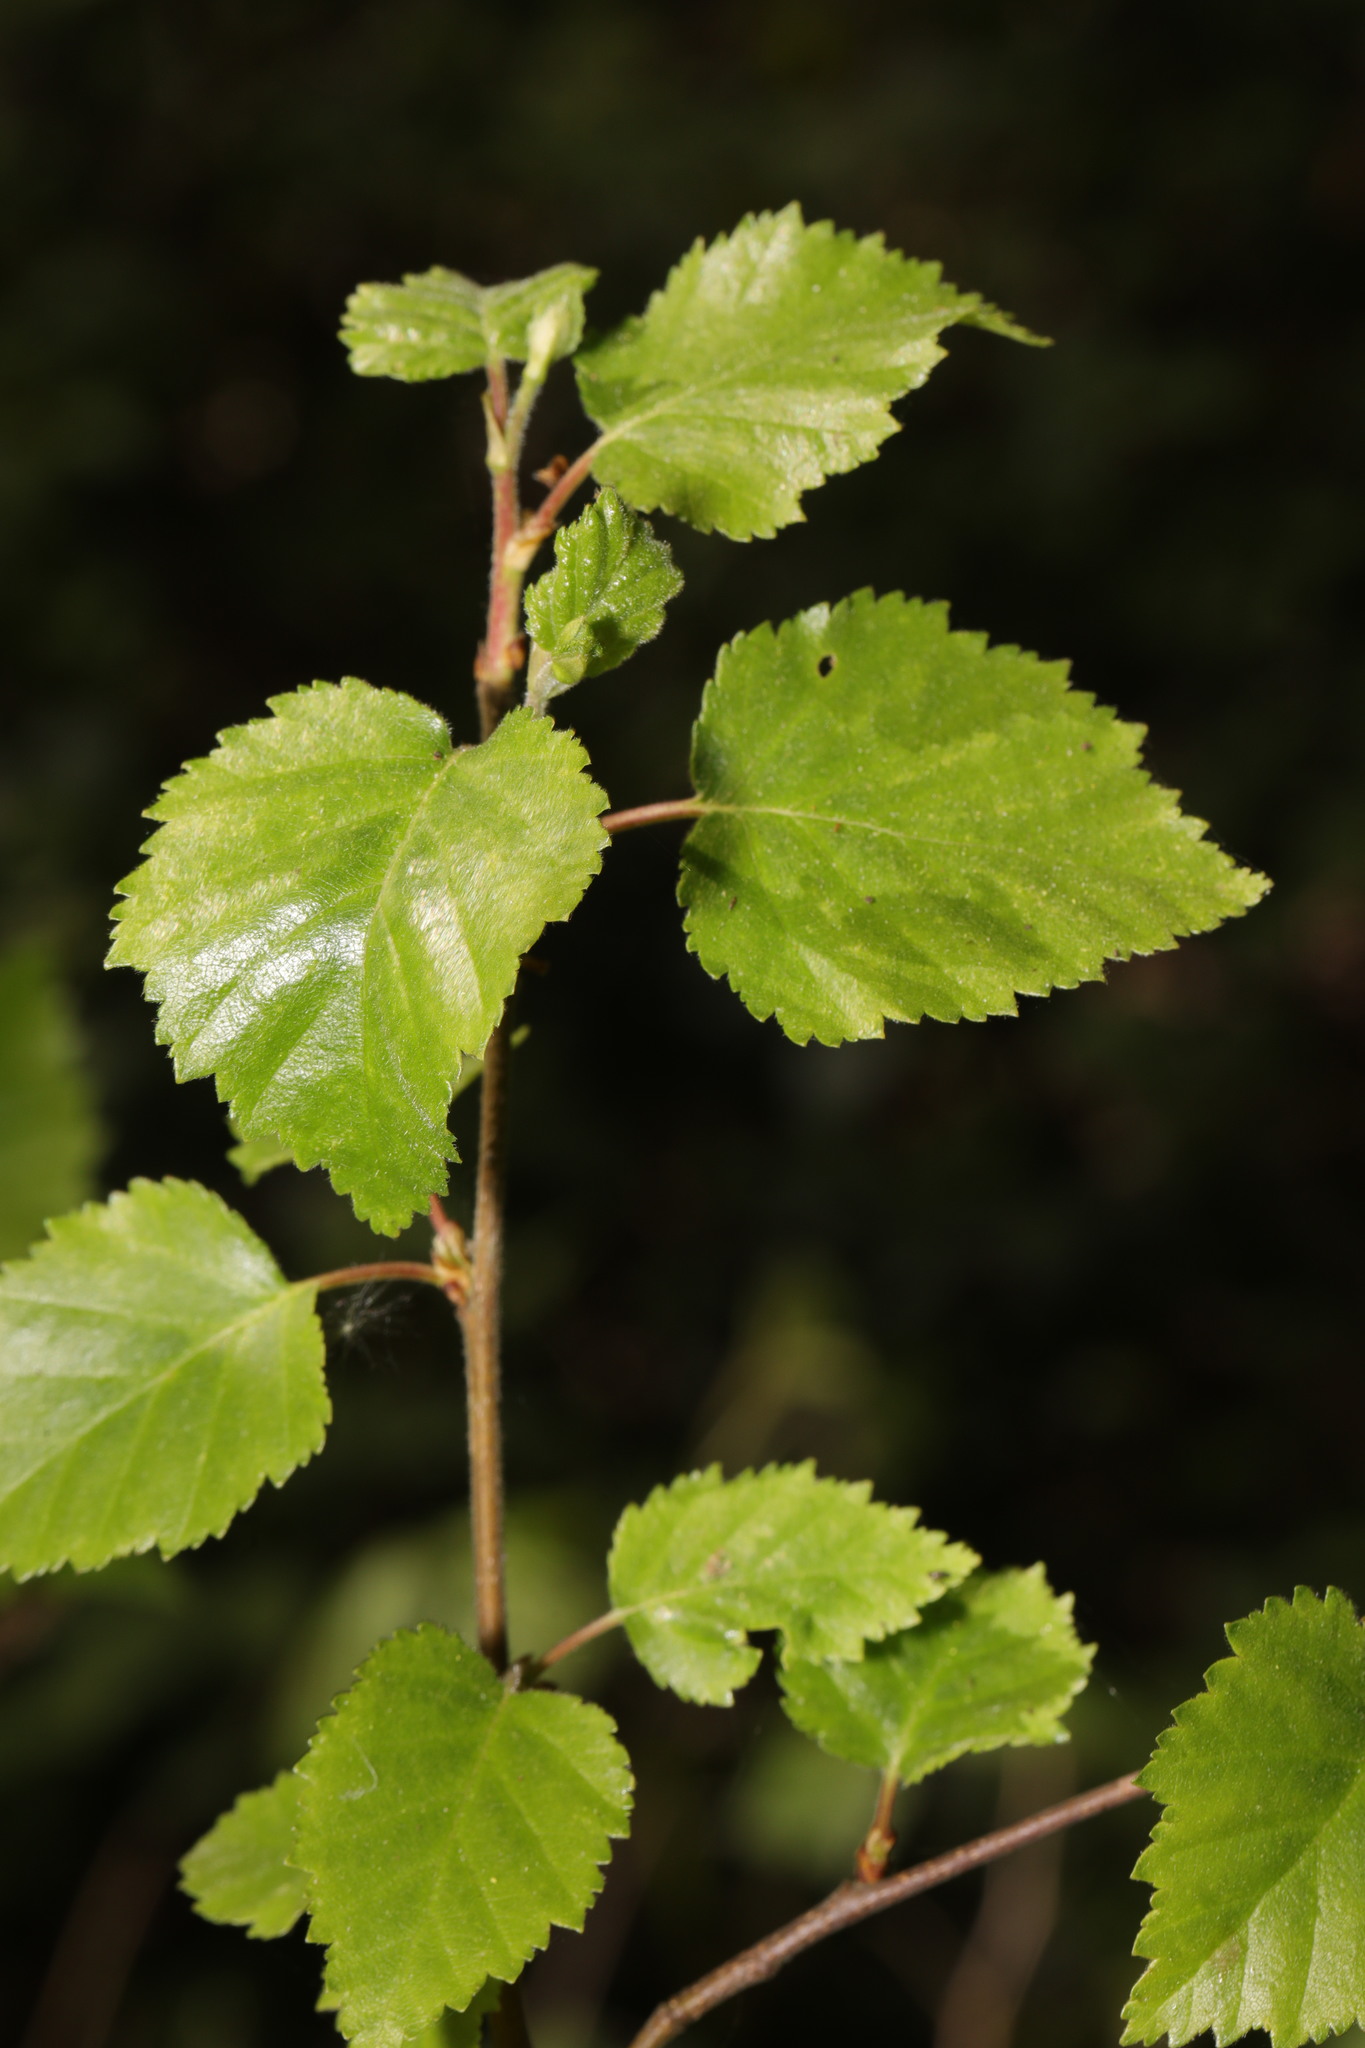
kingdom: Plantae
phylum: Tracheophyta
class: Magnoliopsida
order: Fagales
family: Betulaceae
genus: Betula
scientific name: Betula pubescens
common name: Downy birch
